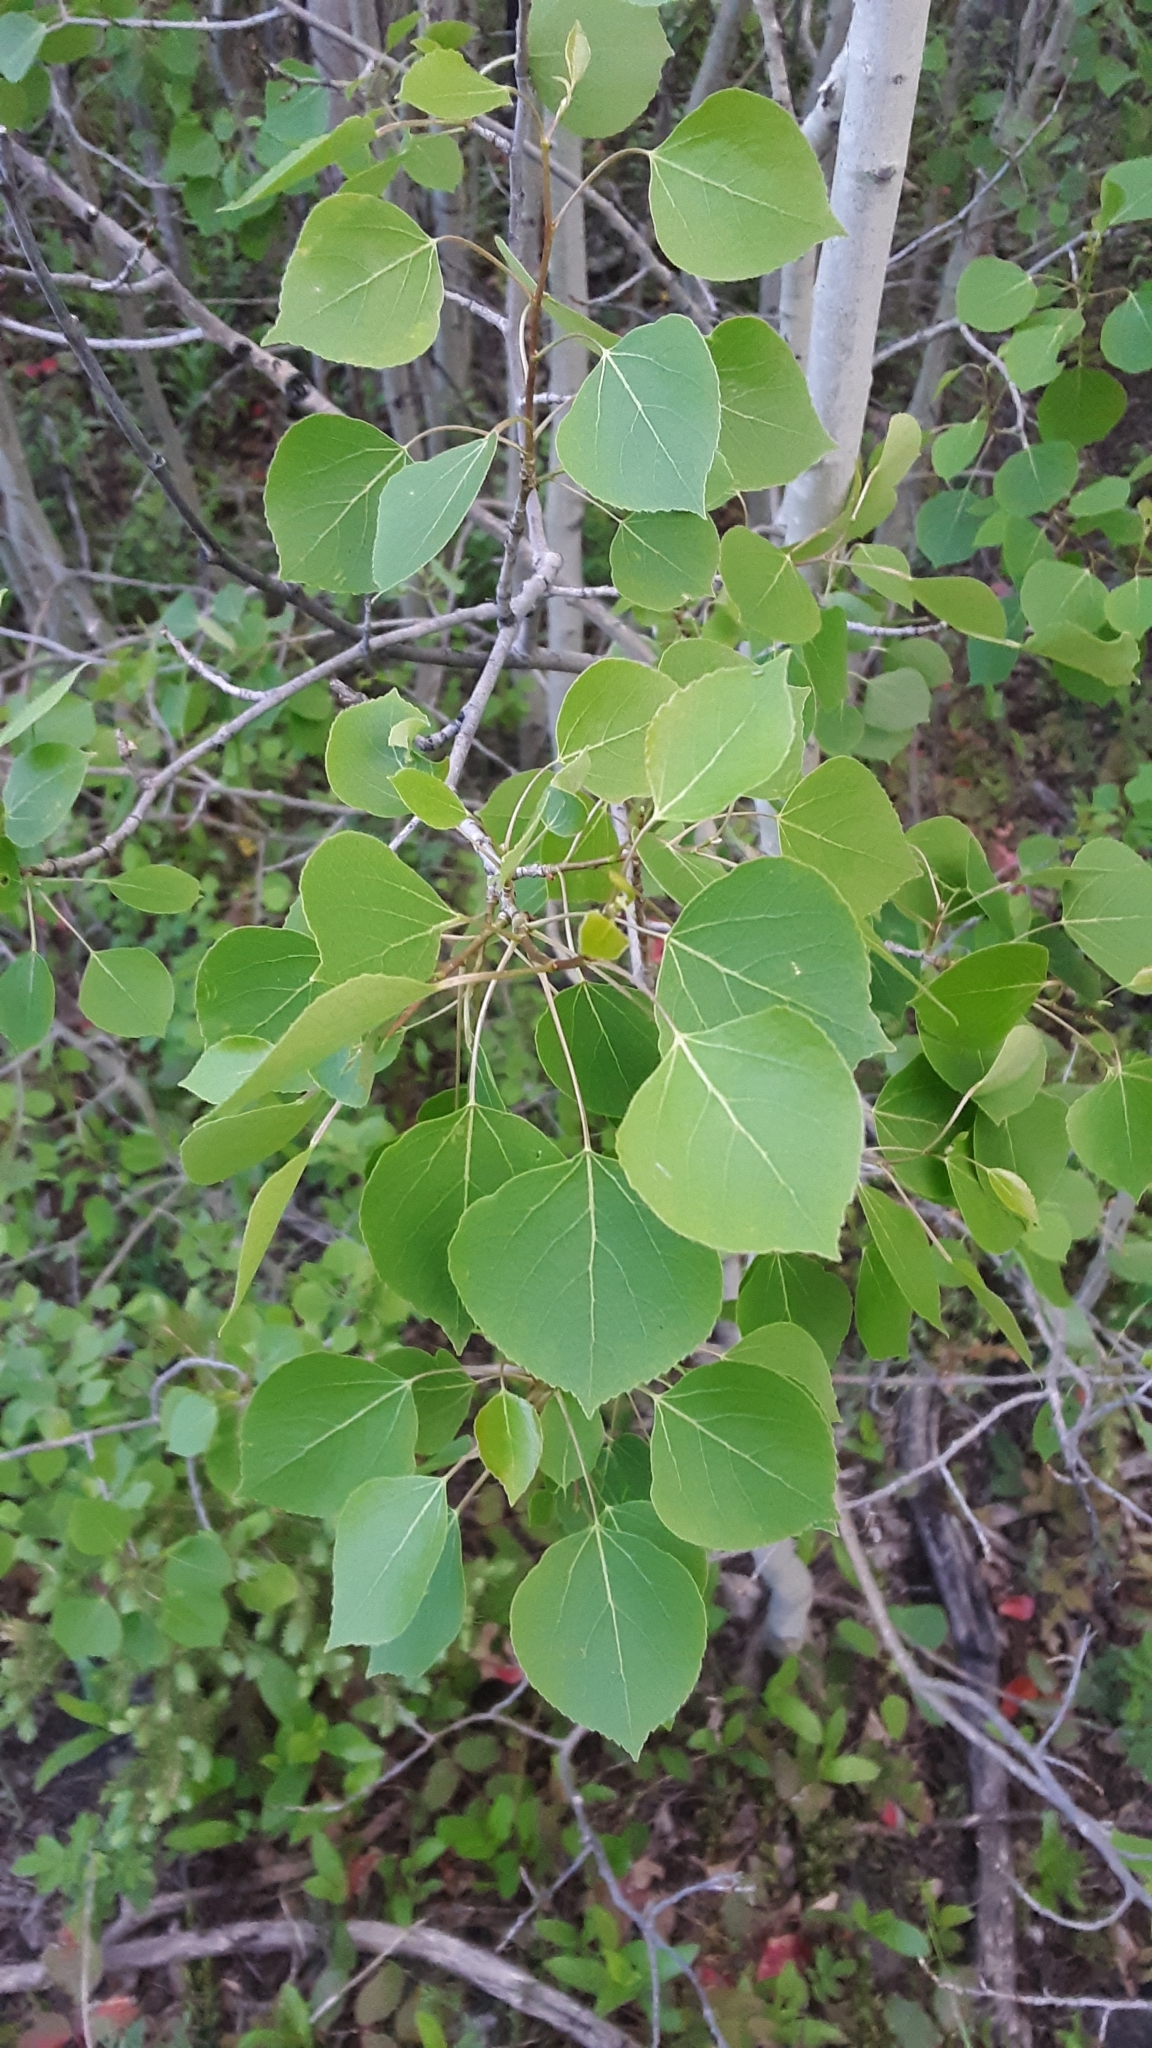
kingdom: Plantae
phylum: Tracheophyta
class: Magnoliopsida
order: Malpighiales
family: Salicaceae
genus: Populus
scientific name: Populus tremuloides
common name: Quaking aspen
